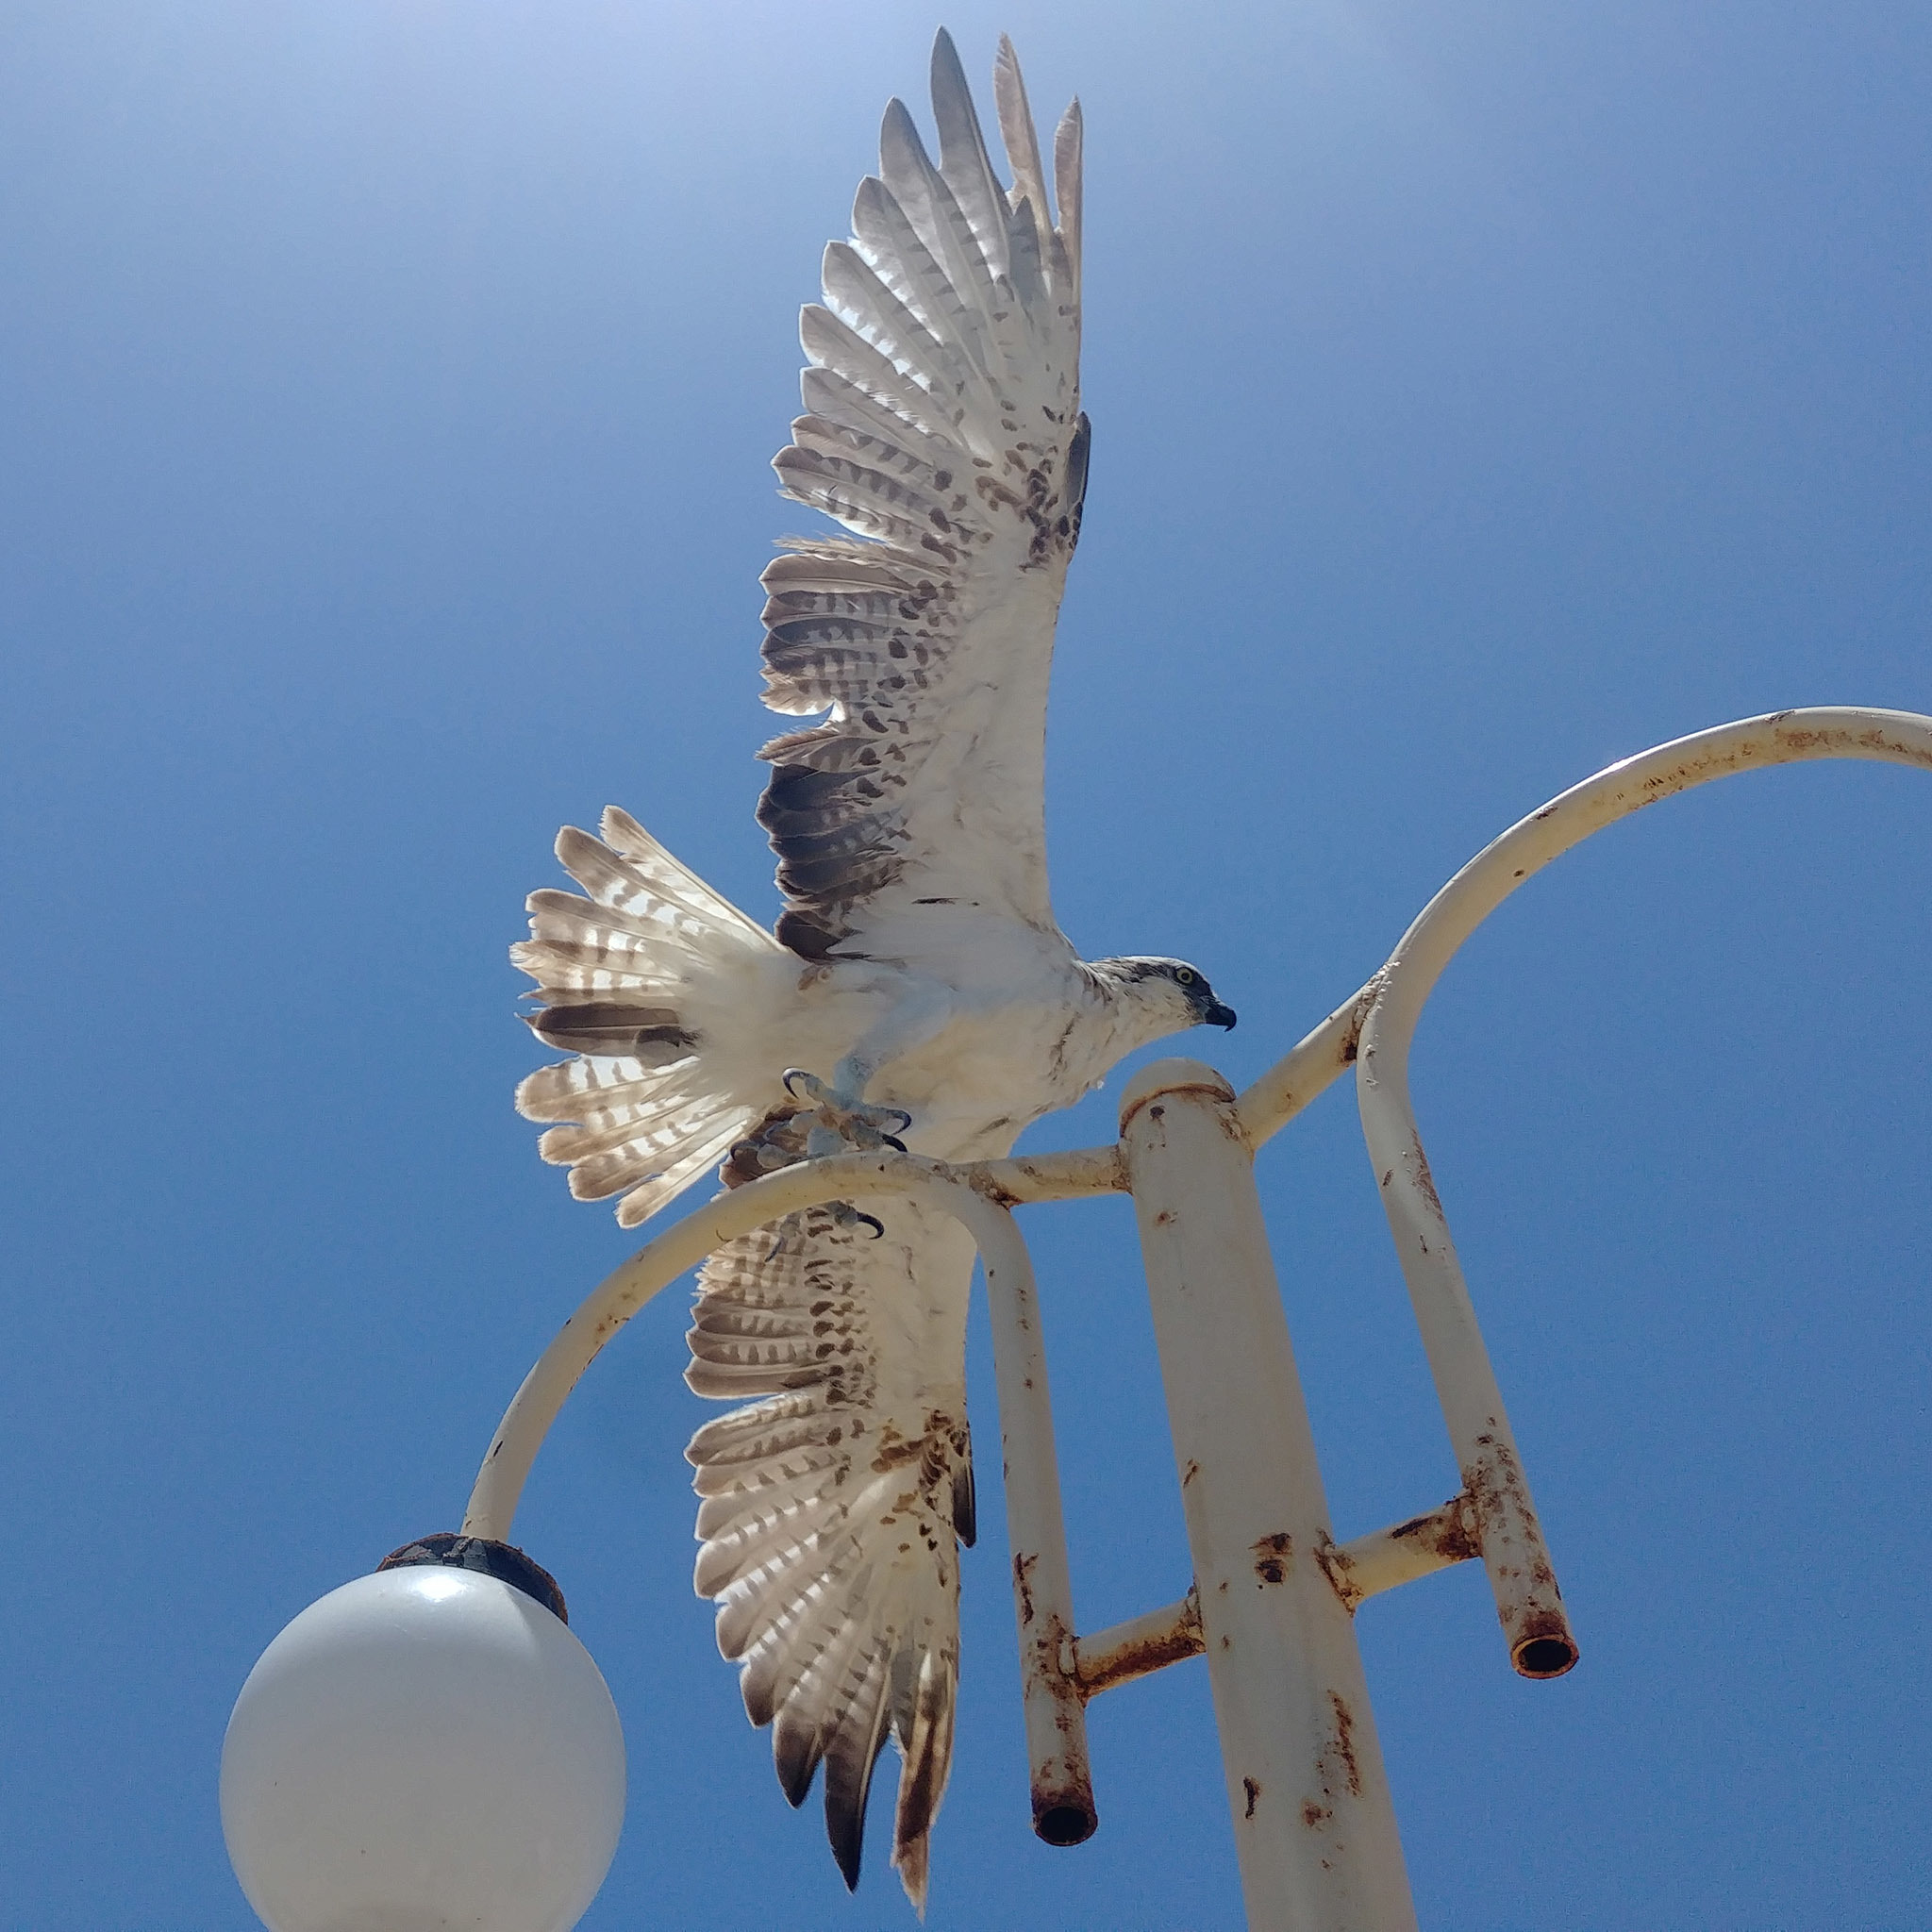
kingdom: Animalia
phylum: Chordata
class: Aves
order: Accipitriformes
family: Pandionidae
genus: Pandion
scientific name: Pandion haliaetus
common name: Osprey
